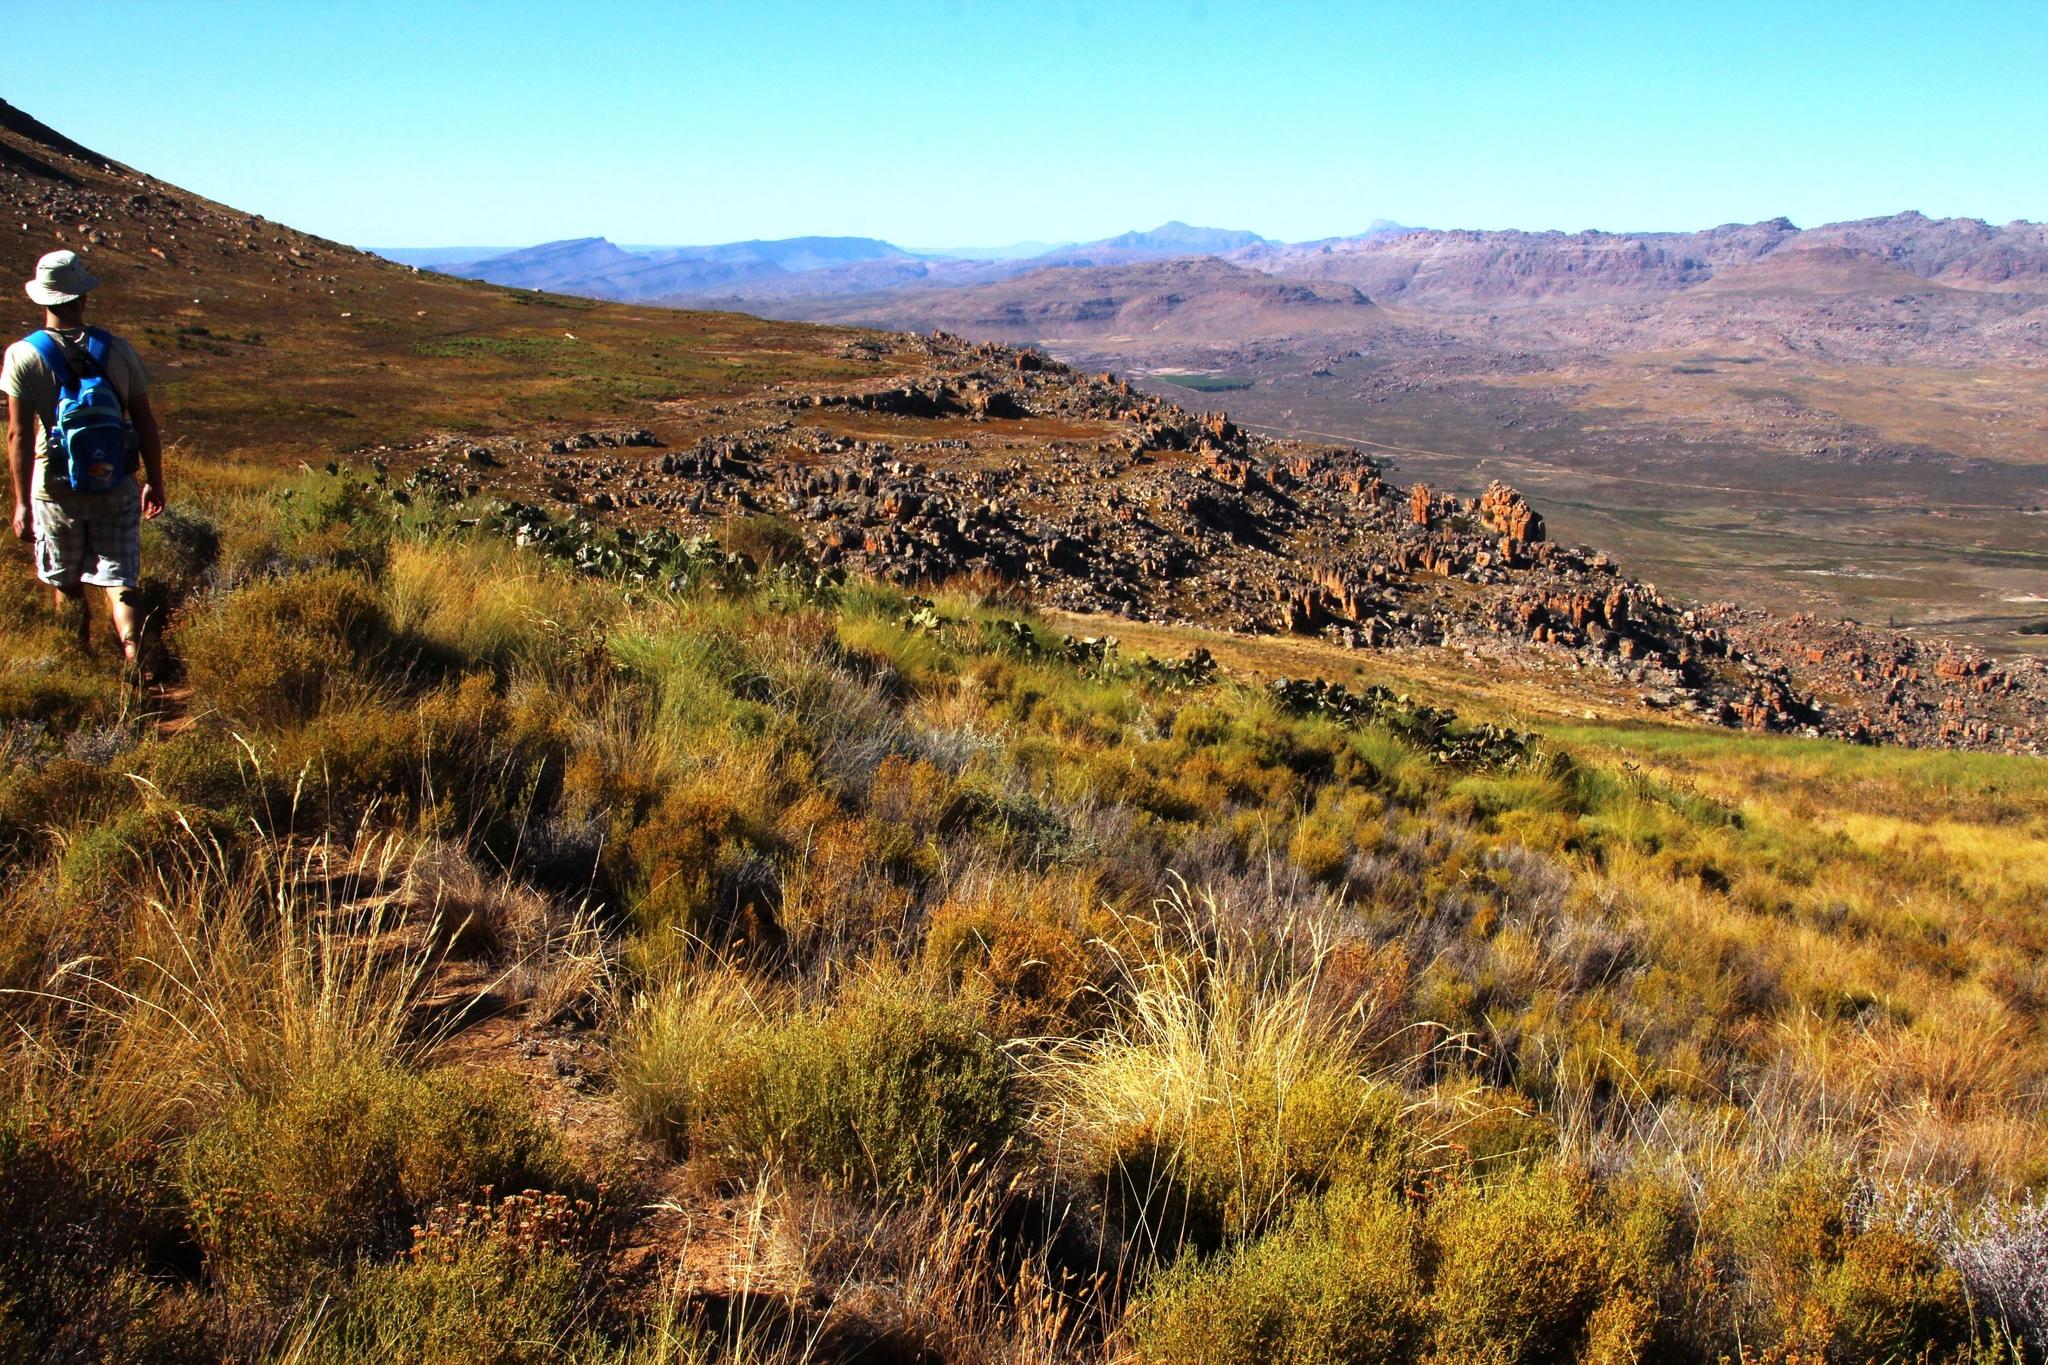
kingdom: Plantae
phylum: Tracheophyta
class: Magnoliopsida
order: Gunnerales
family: Gunneraceae
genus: Gunnera
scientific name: Gunnera perpensa
